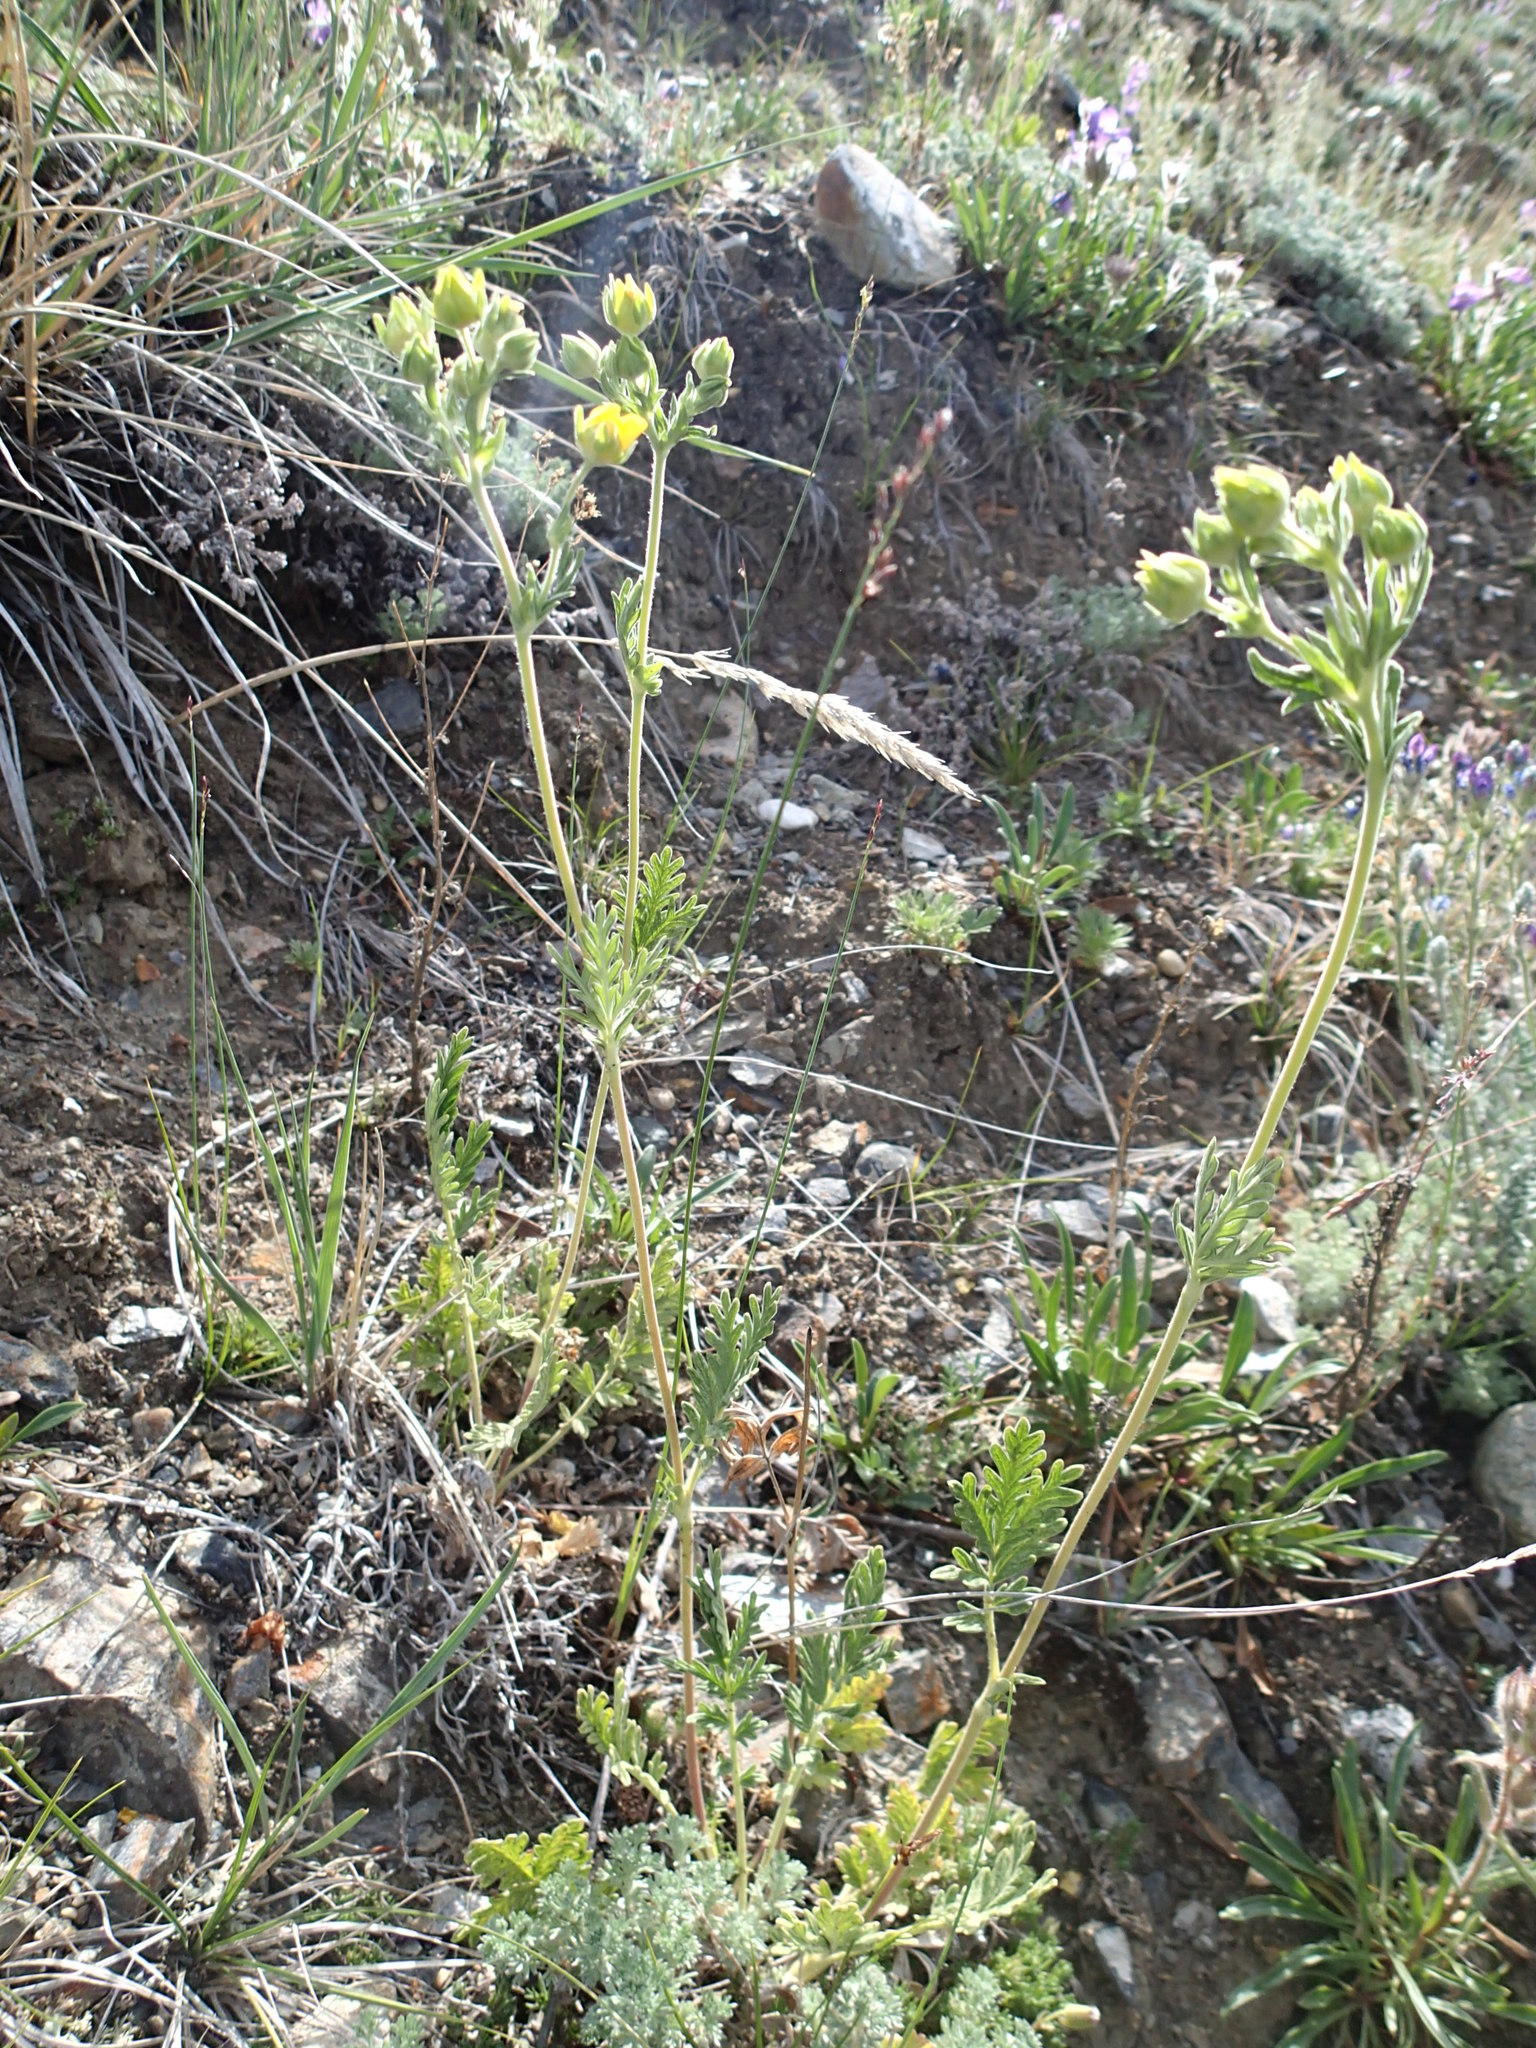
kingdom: Plantae
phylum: Tracheophyta
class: Magnoliopsida
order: Rosales
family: Rosaceae
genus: Potentilla
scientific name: Potentilla pensylvanica
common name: Pennsylvania cinquefoil
